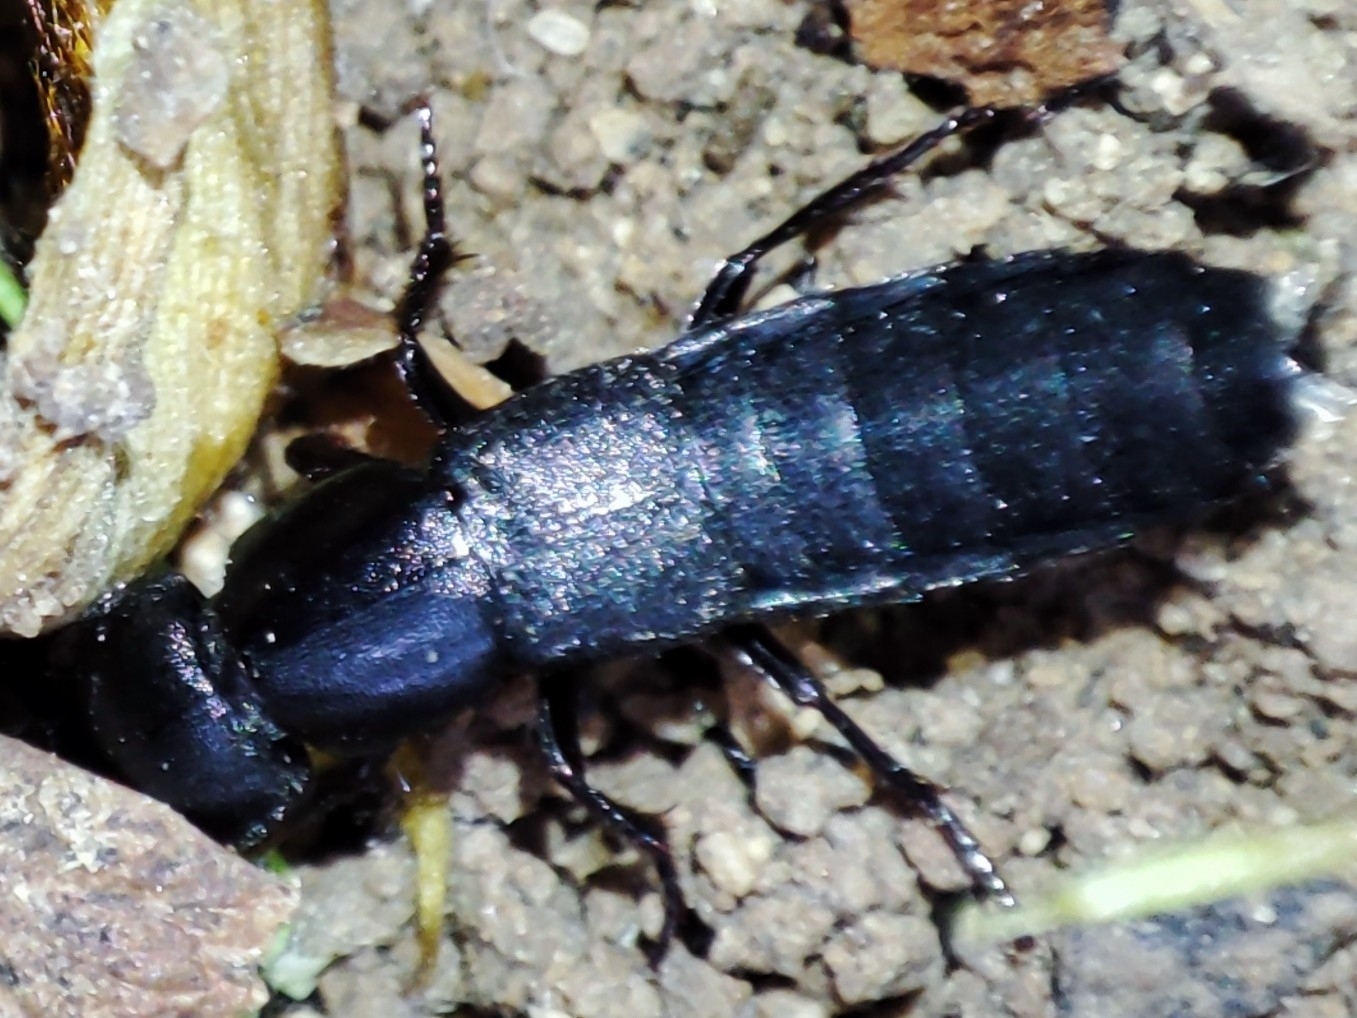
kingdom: Animalia
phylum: Arthropoda
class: Insecta
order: Coleoptera
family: Staphylinidae
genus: Ocypus
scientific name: Ocypus nitens
